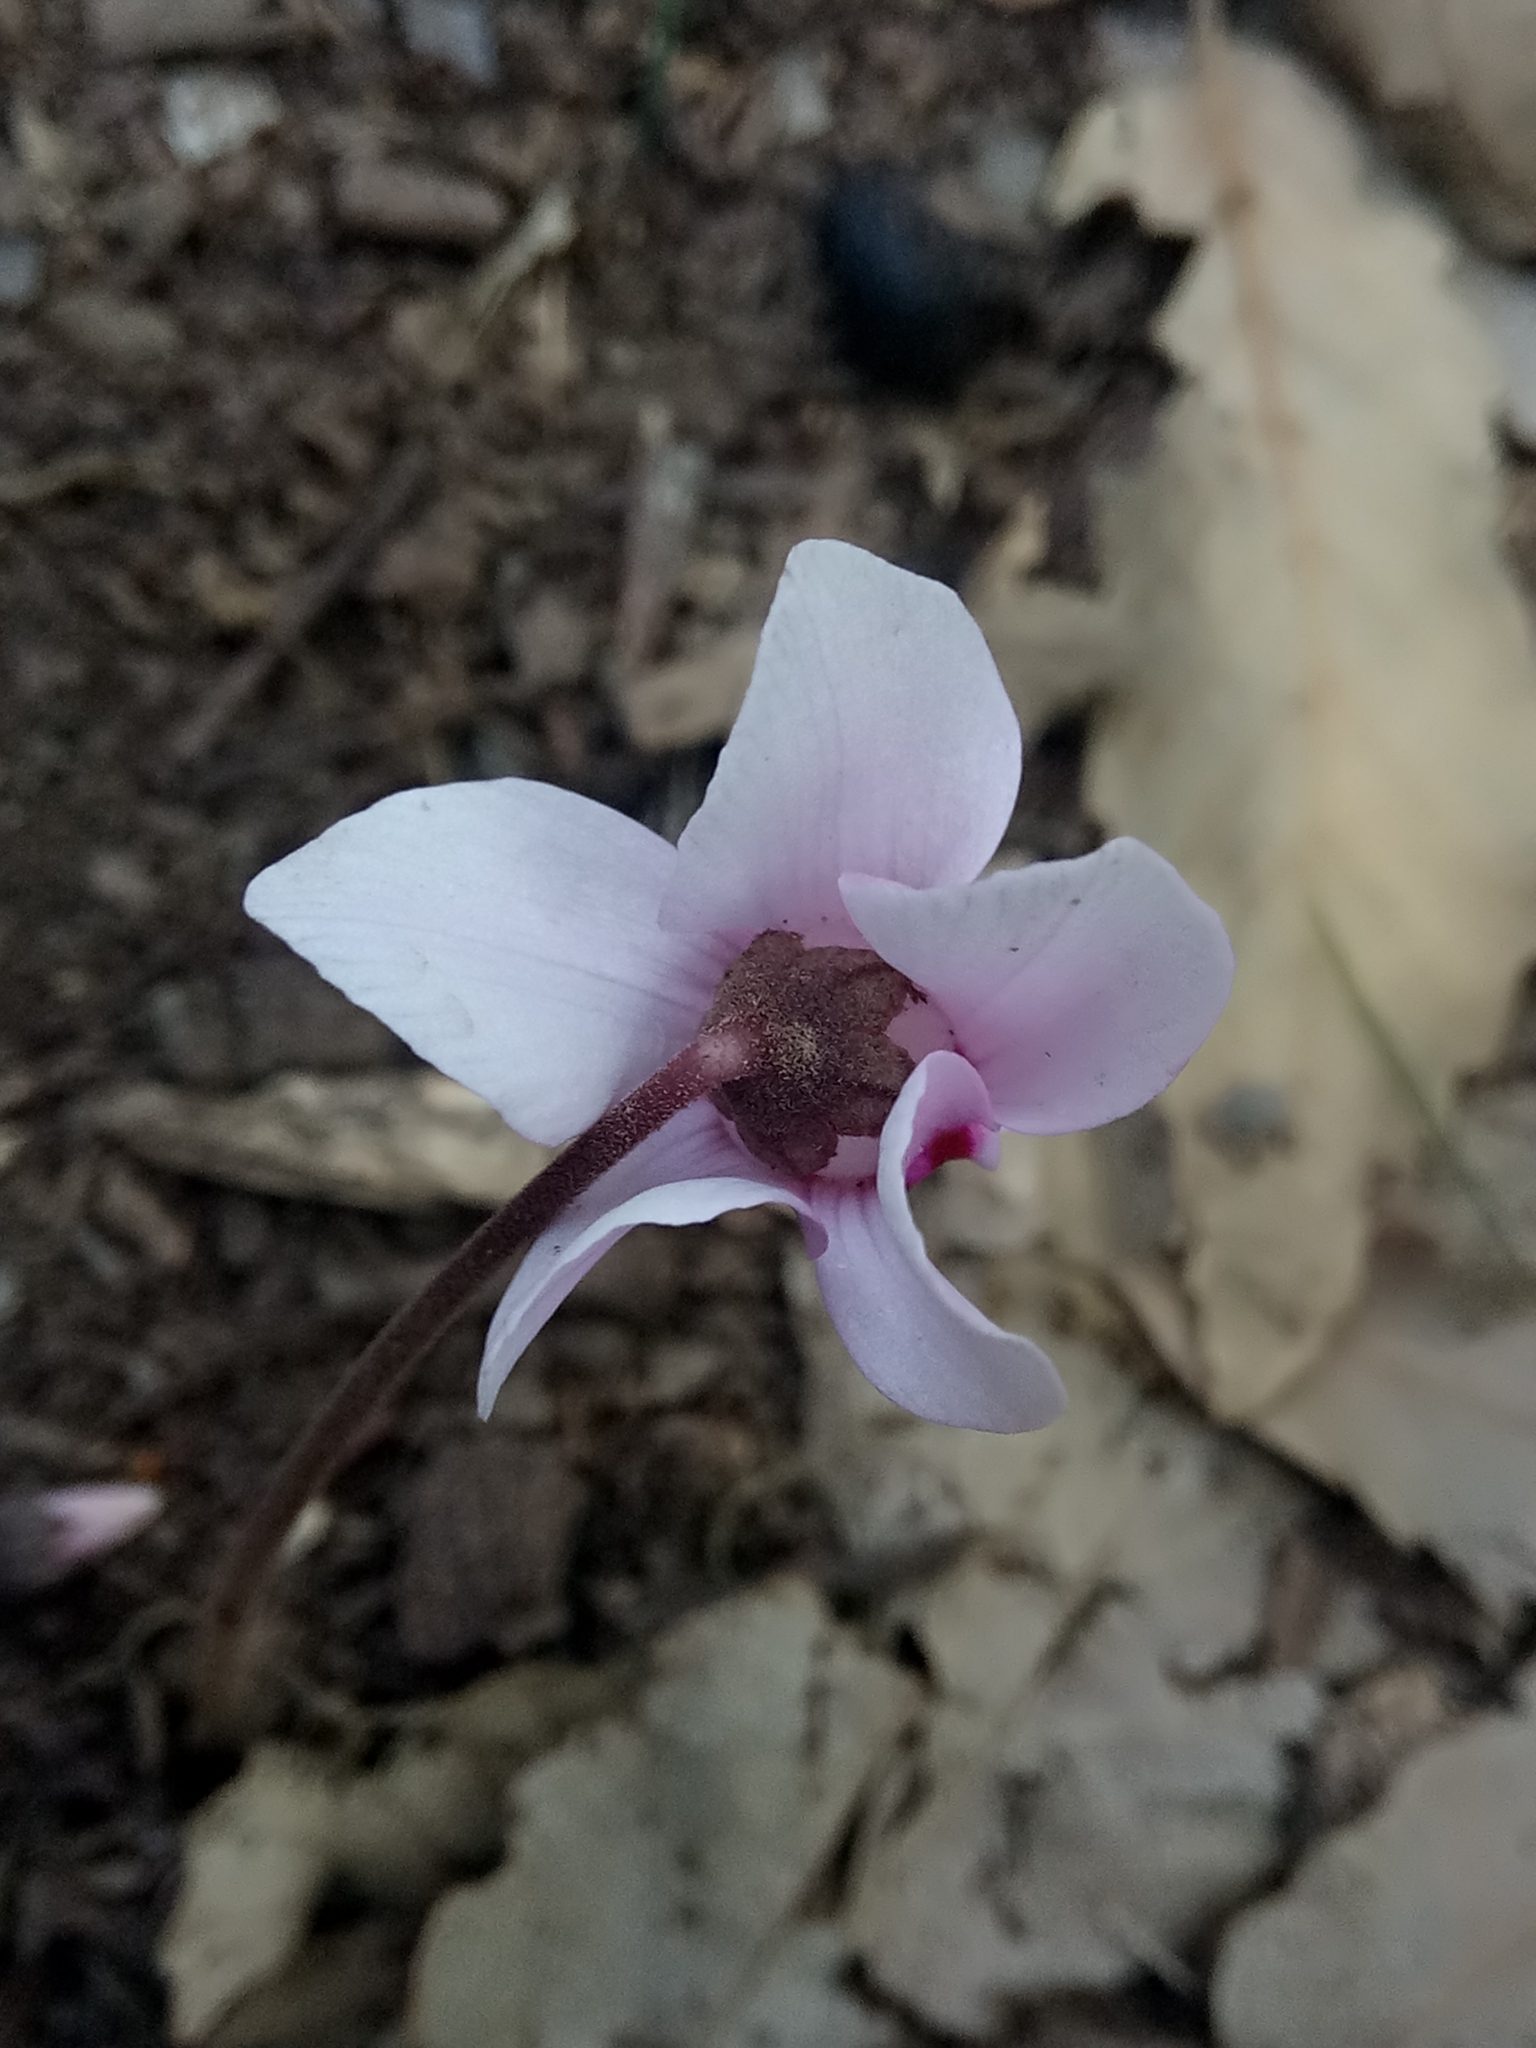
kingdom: Plantae
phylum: Tracheophyta
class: Magnoliopsida
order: Ericales
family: Primulaceae
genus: Cyclamen
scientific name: Cyclamen africanum
